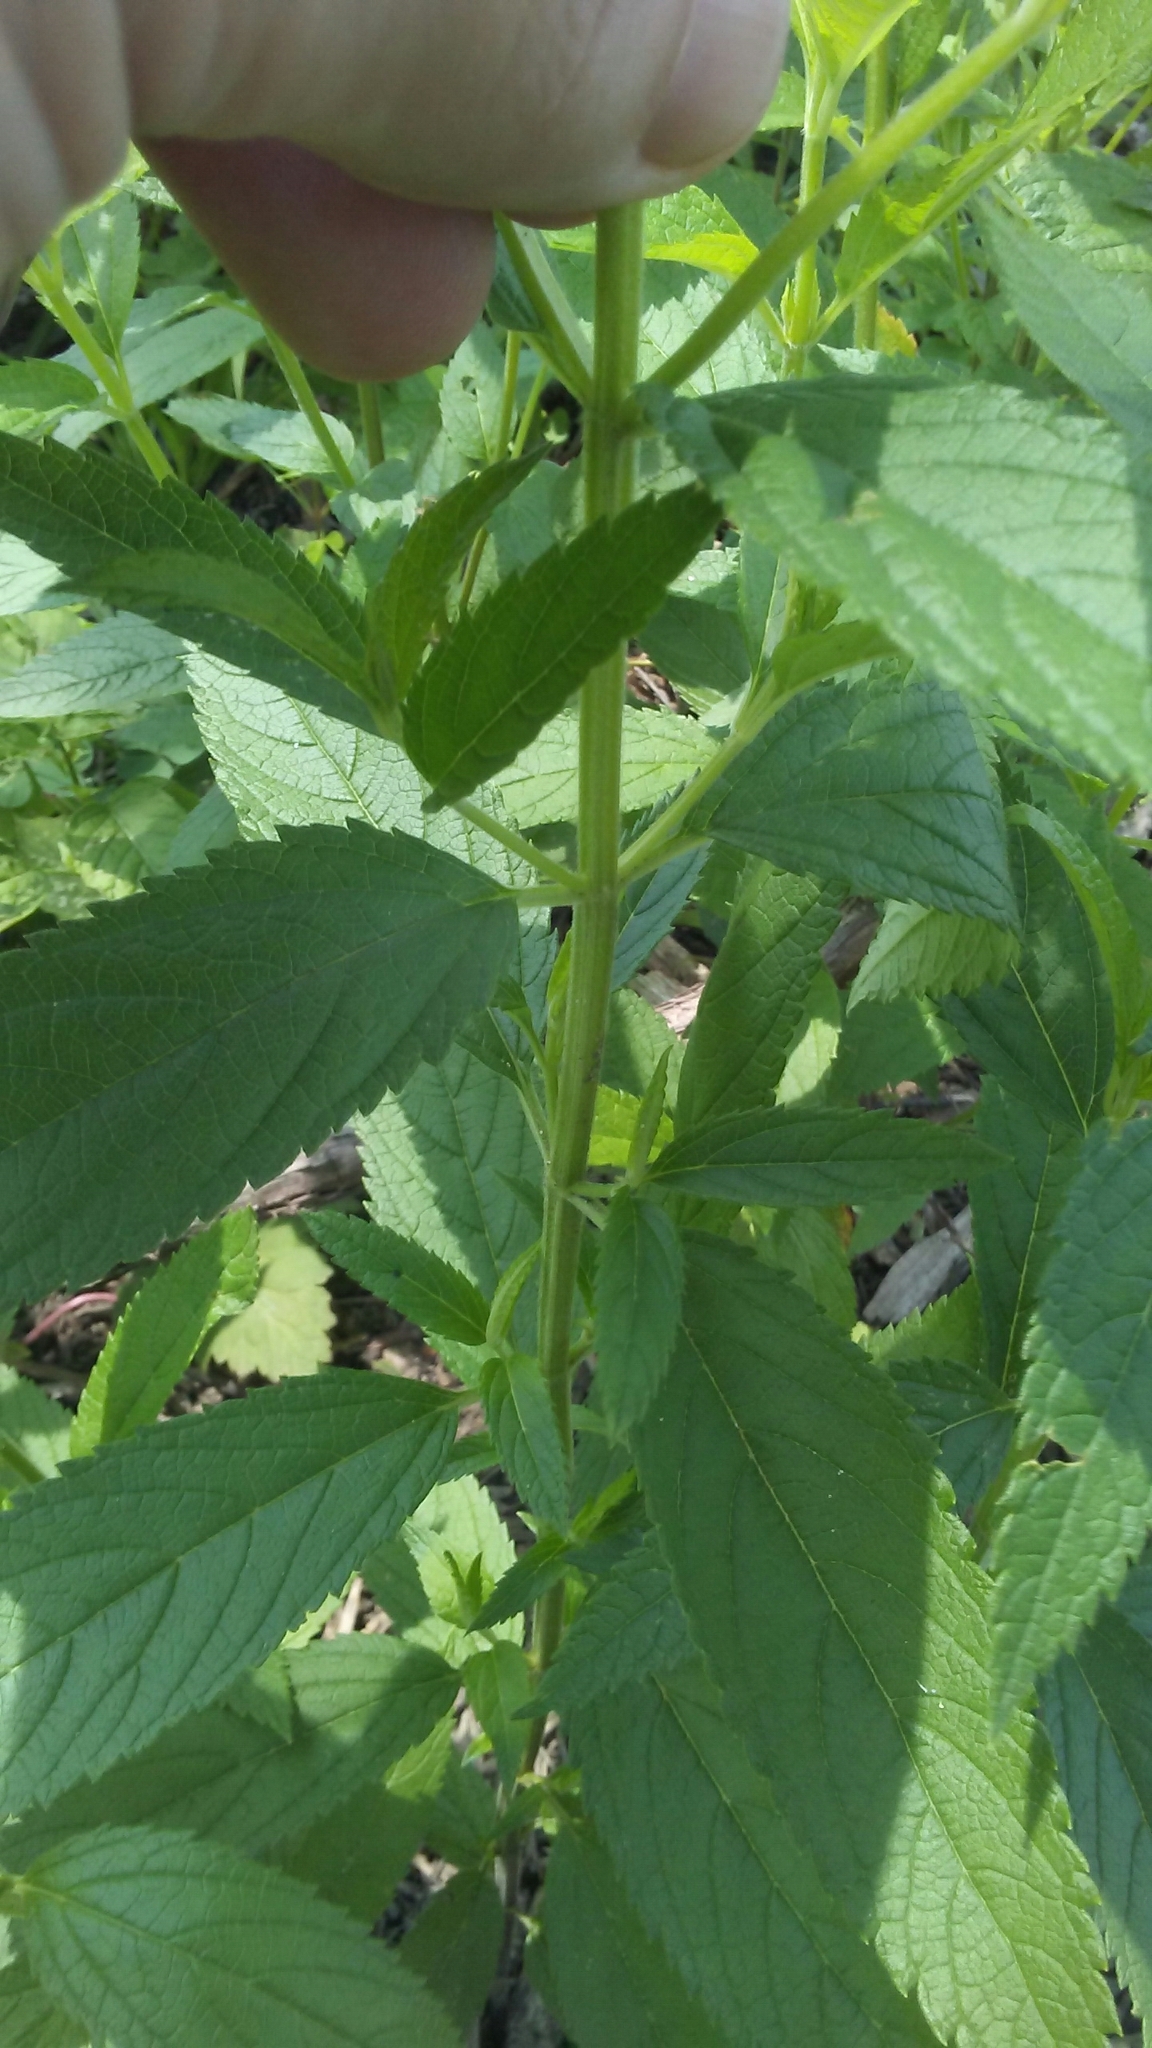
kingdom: Plantae
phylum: Tracheophyta
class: Magnoliopsida
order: Lamiales
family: Lamiaceae
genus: Teucrium
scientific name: Teucrium canadense
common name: American germander
